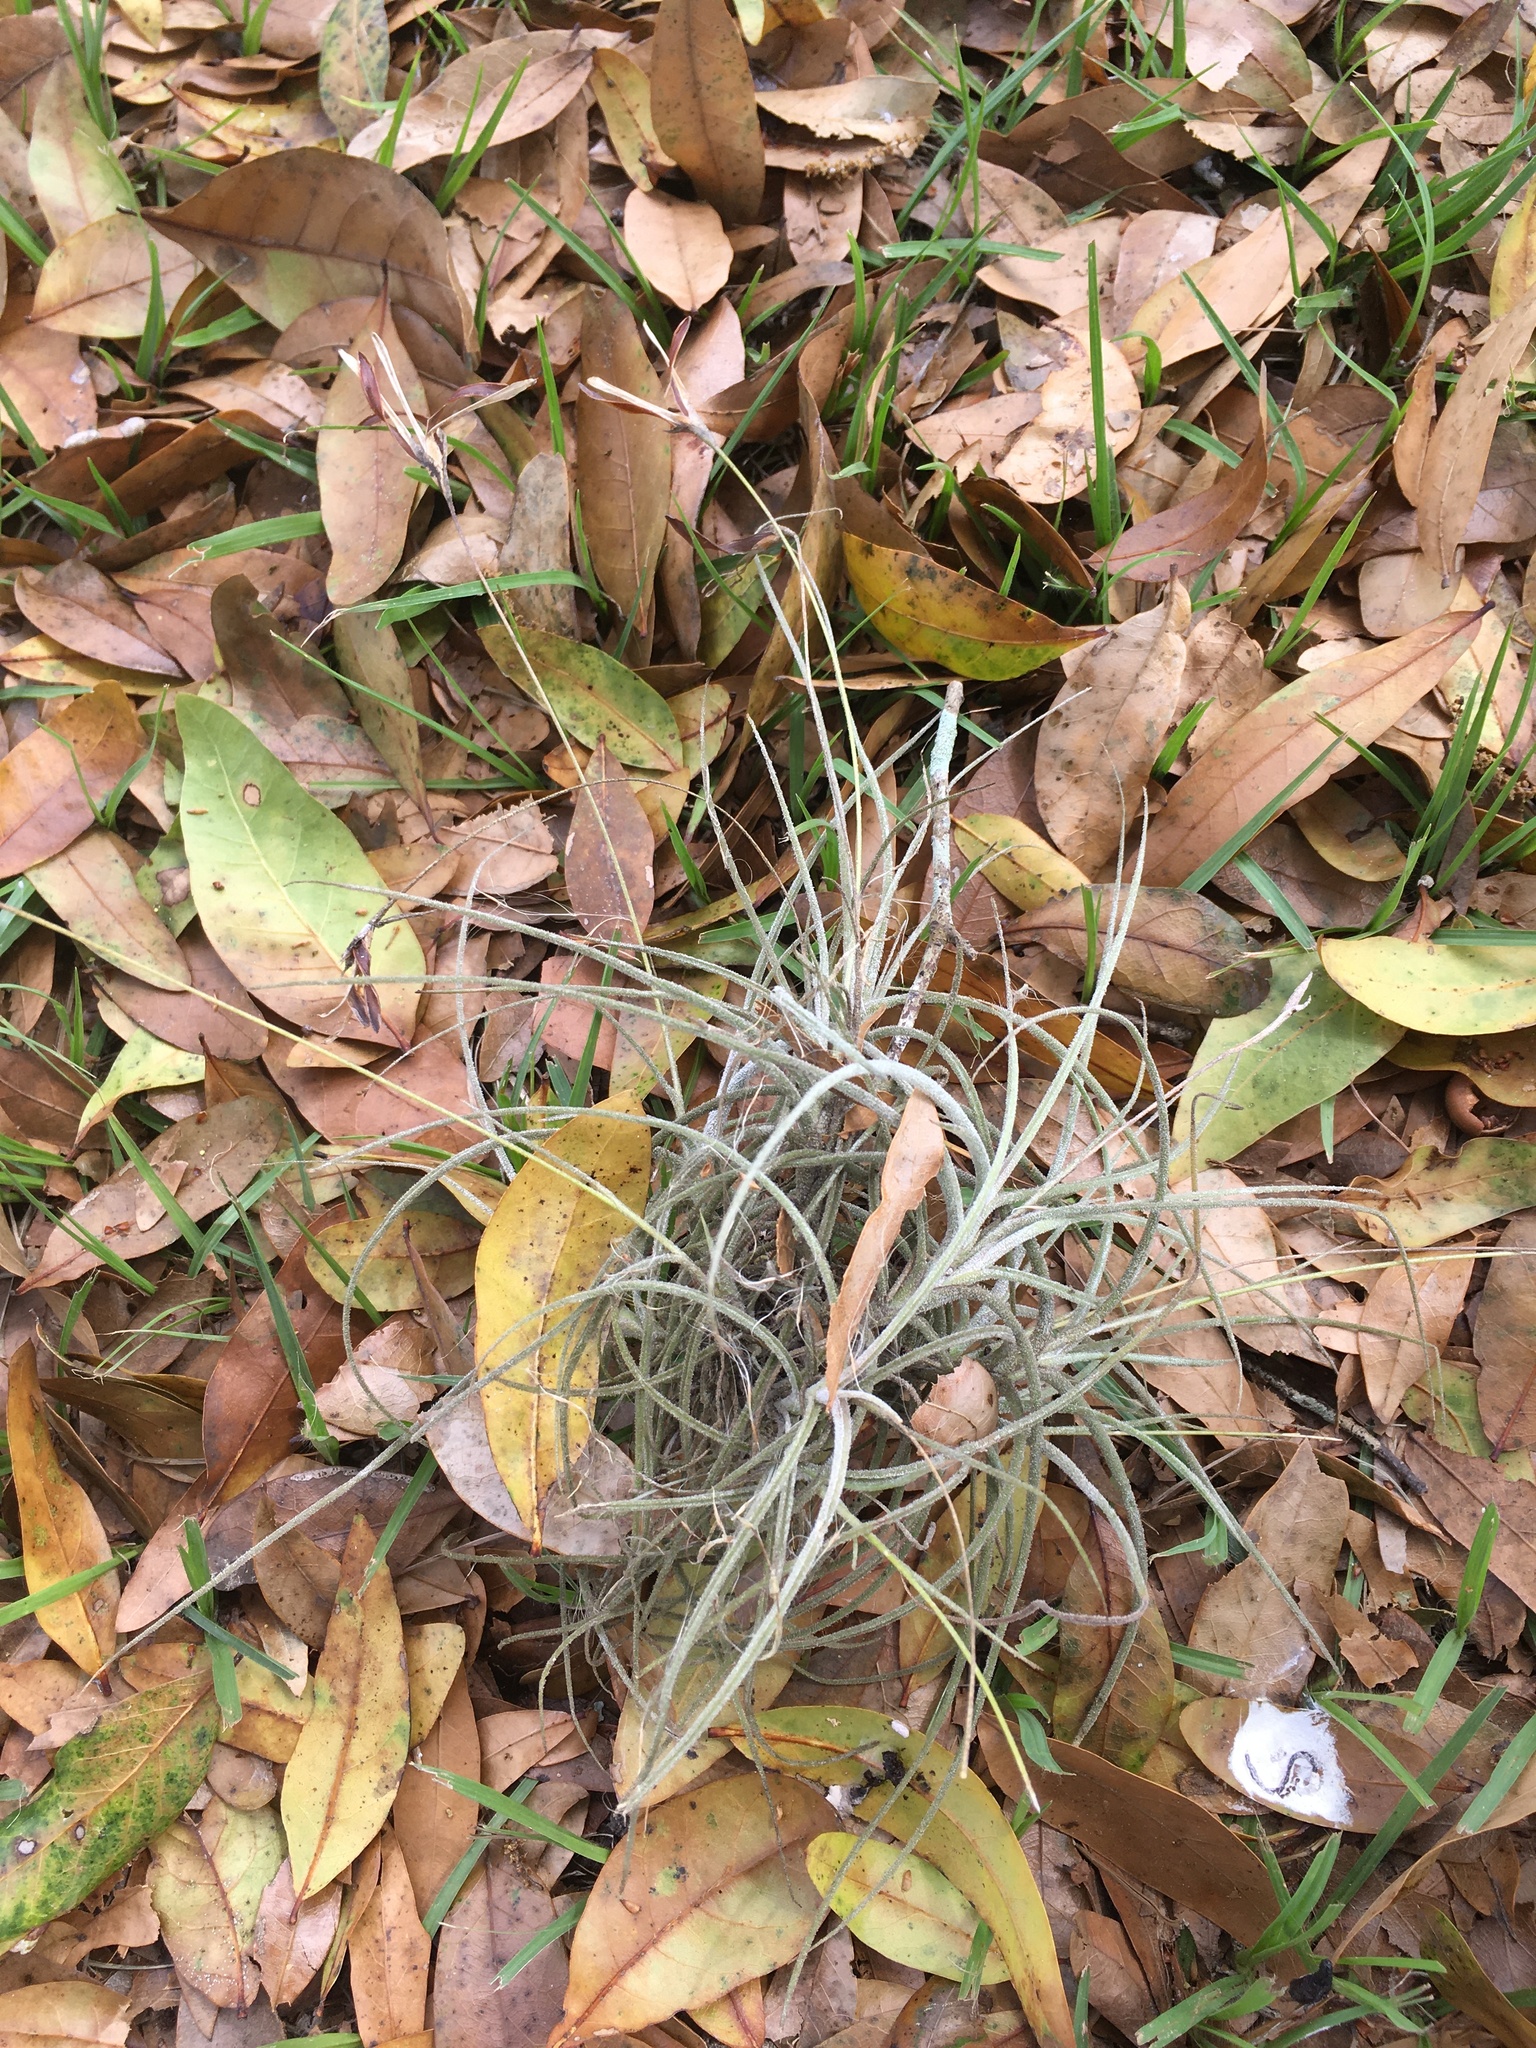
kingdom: Plantae
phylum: Tracheophyta
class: Liliopsida
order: Poales
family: Bromeliaceae
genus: Tillandsia
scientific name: Tillandsia recurvata
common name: Small ballmoss
